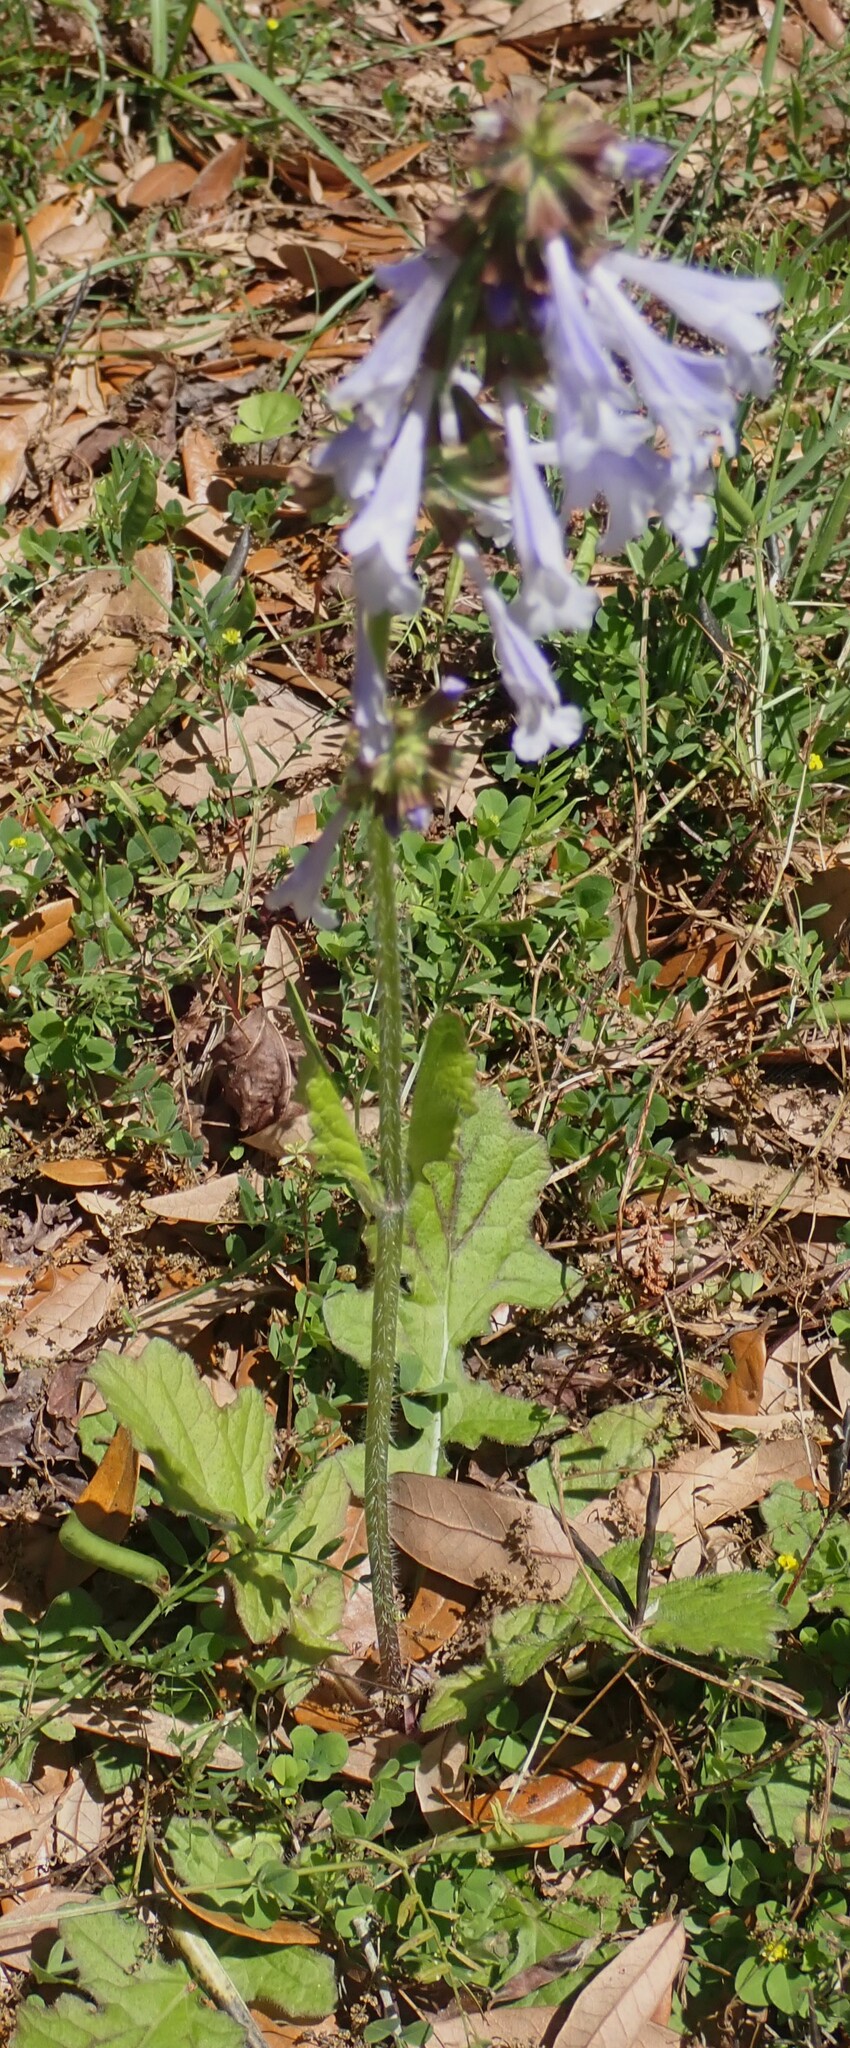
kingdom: Plantae
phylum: Tracheophyta
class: Magnoliopsida
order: Lamiales
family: Lamiaceae
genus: Salvia
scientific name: Salvia lyrata
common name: Cancerweed
